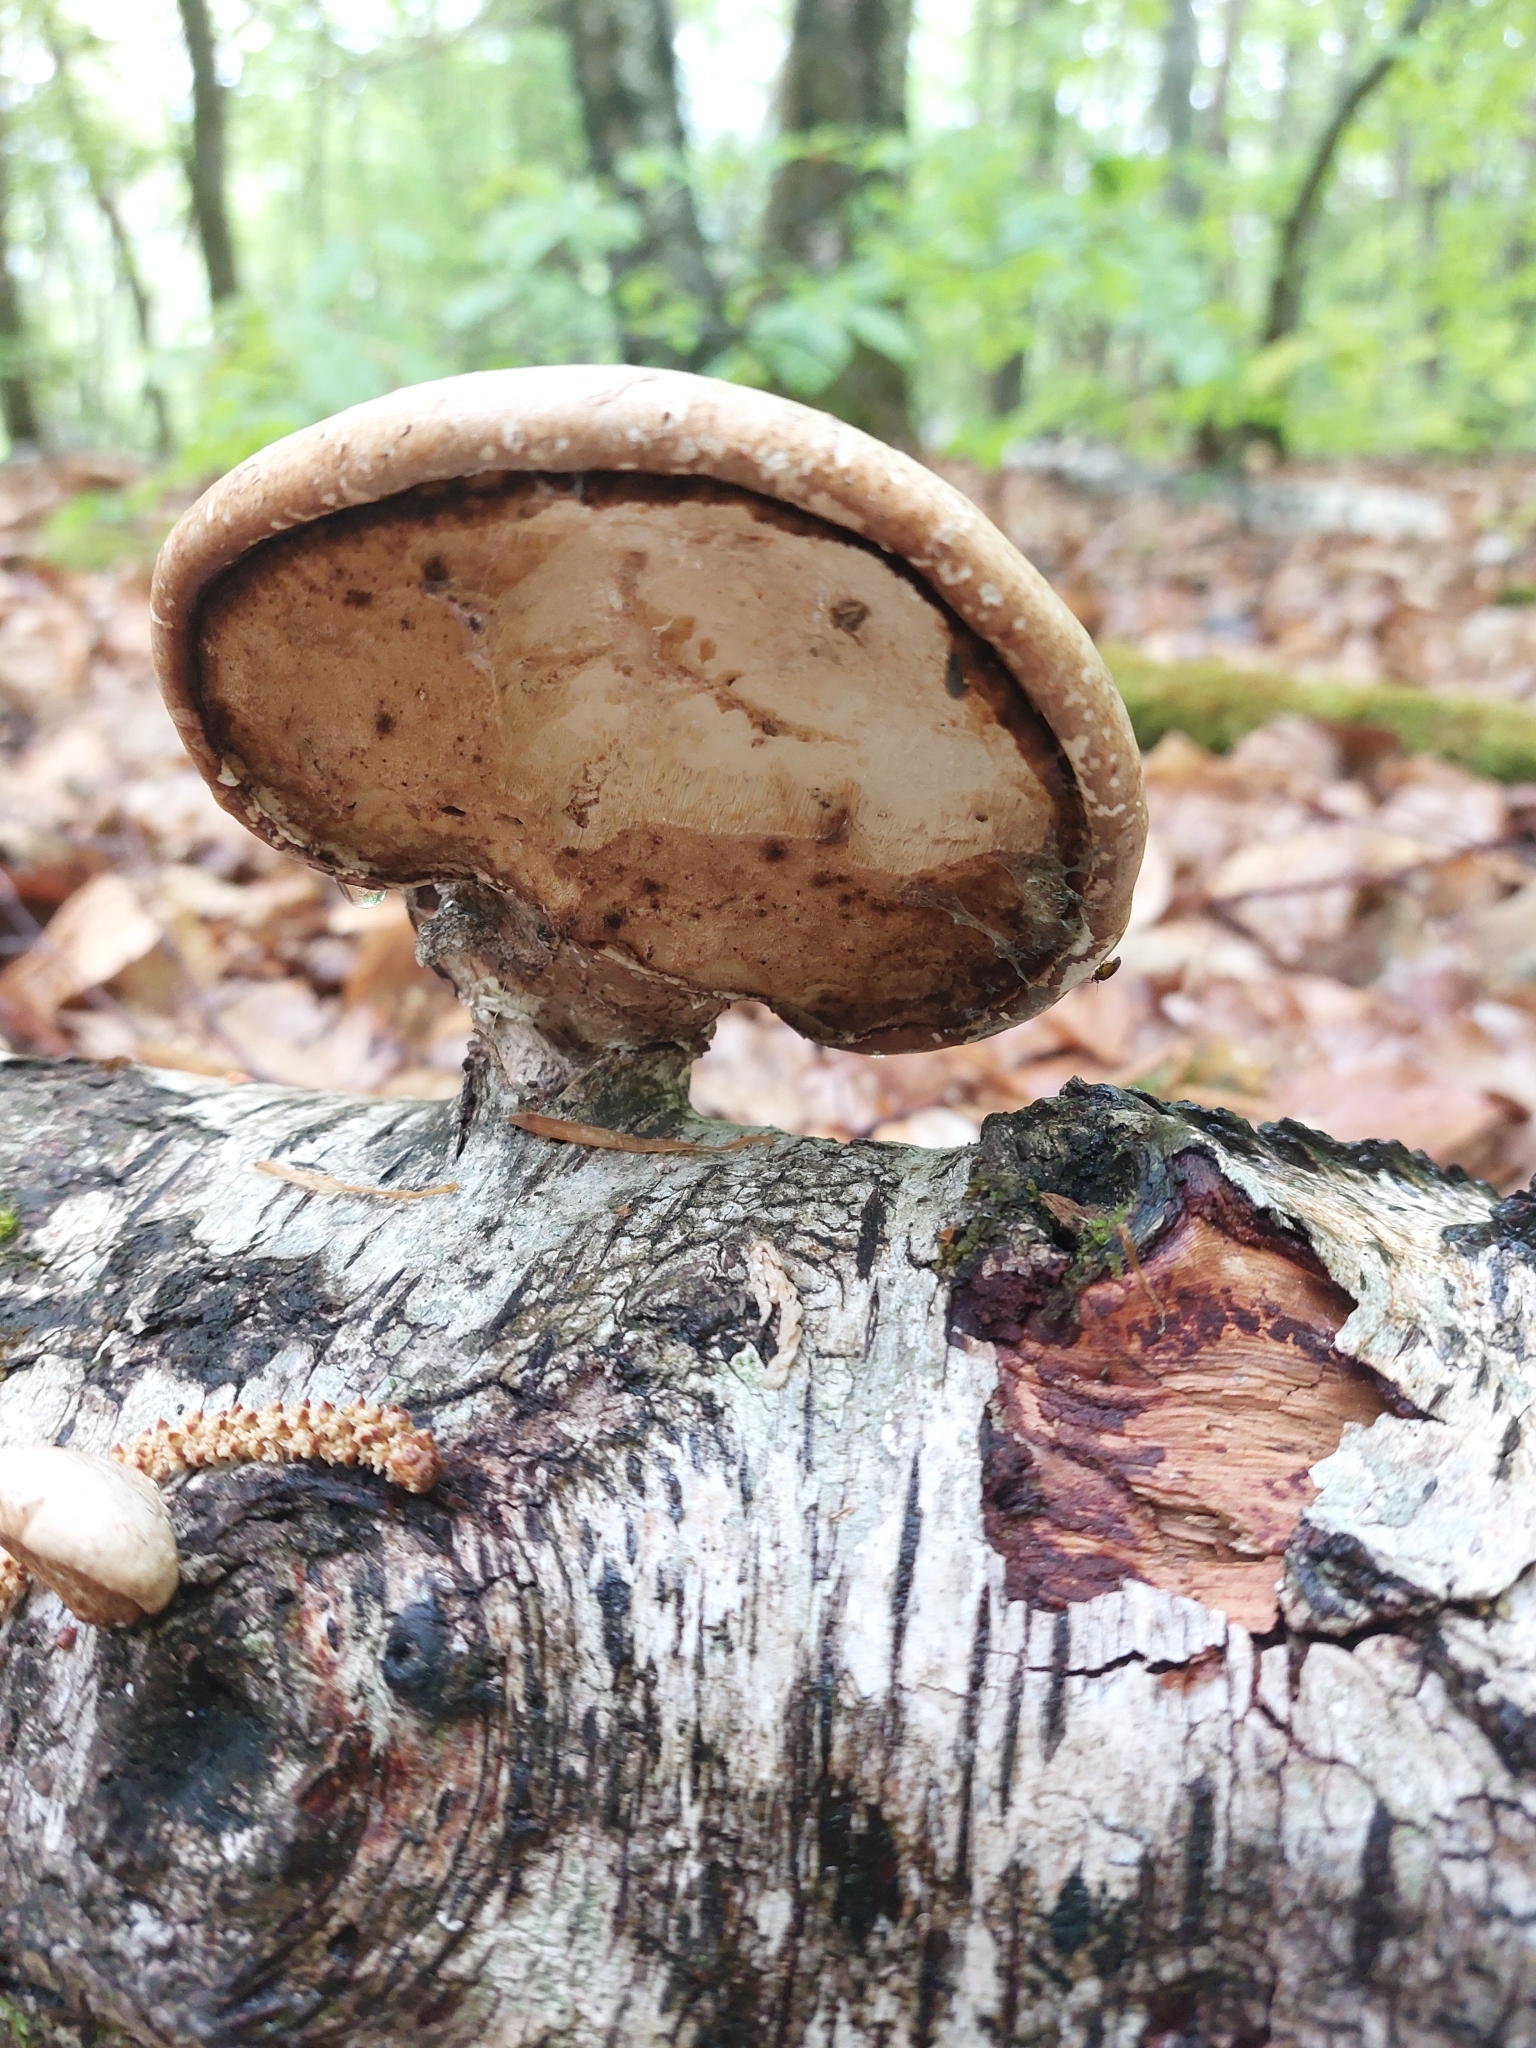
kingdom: Fungi
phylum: Basidiomycota
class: Agaricomycetes
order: Polyporales
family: Fomitopsidaceae
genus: Fomitopsis
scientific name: Fomitopsis betulina
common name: Birch polypore
